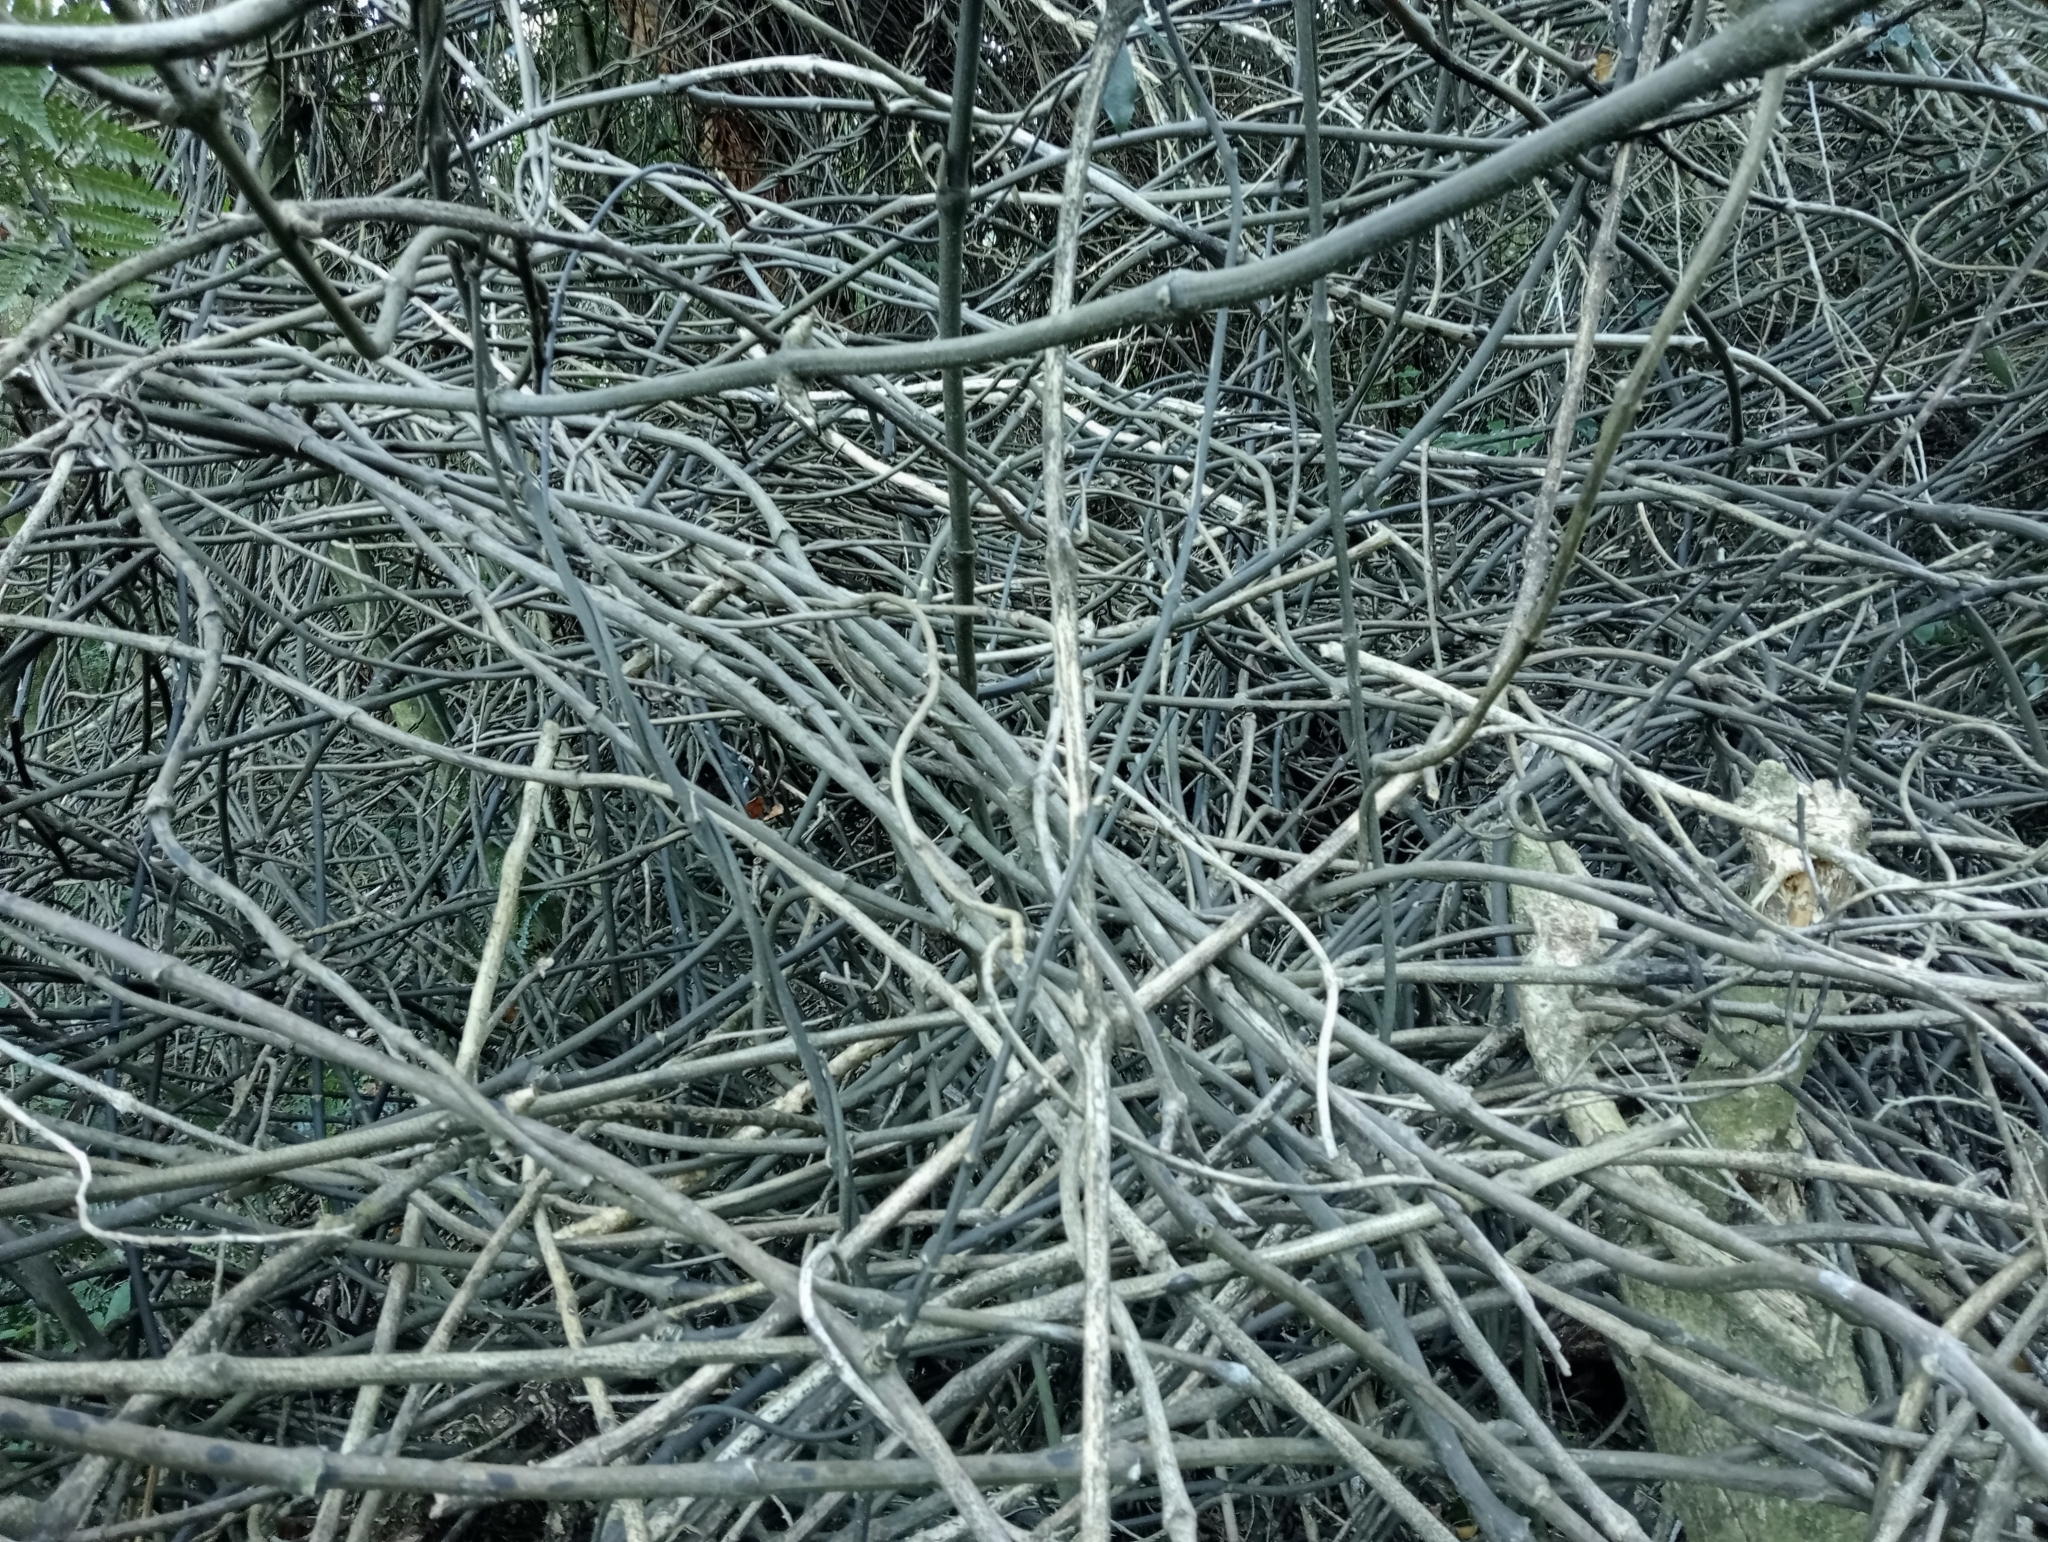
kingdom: Plantae
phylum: Tracheophyta
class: Liliopsida
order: Liliales
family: Ripogonaceae
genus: Ripogonum
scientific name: Ripogonum scandens
